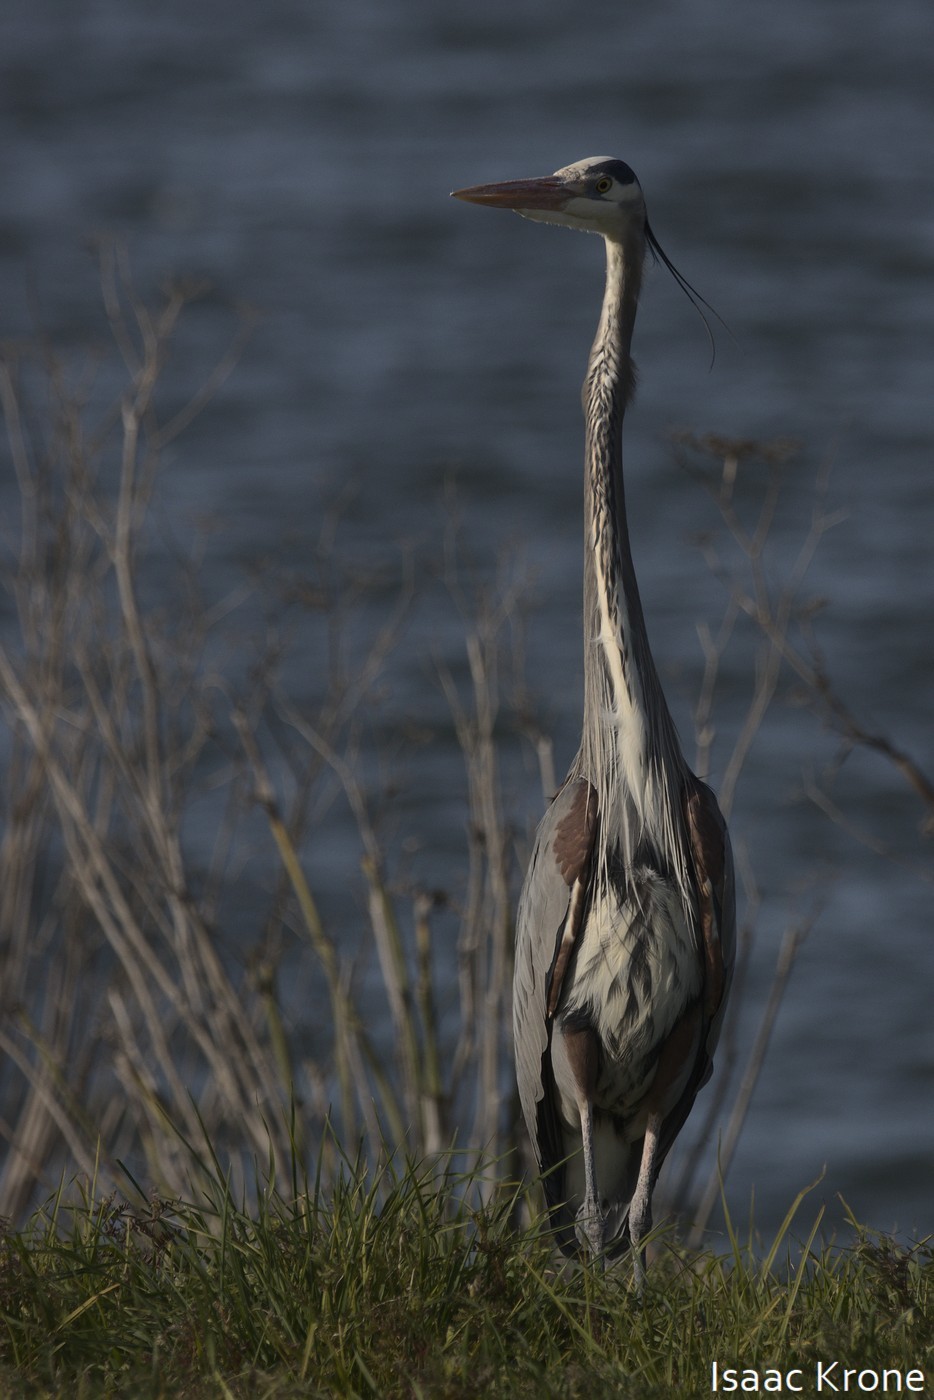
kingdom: Animalia
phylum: Chordata
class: Aves
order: Pelecaniformes
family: Ardeidae
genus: Ardea
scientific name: Ardea herodias
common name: Great blue heron
